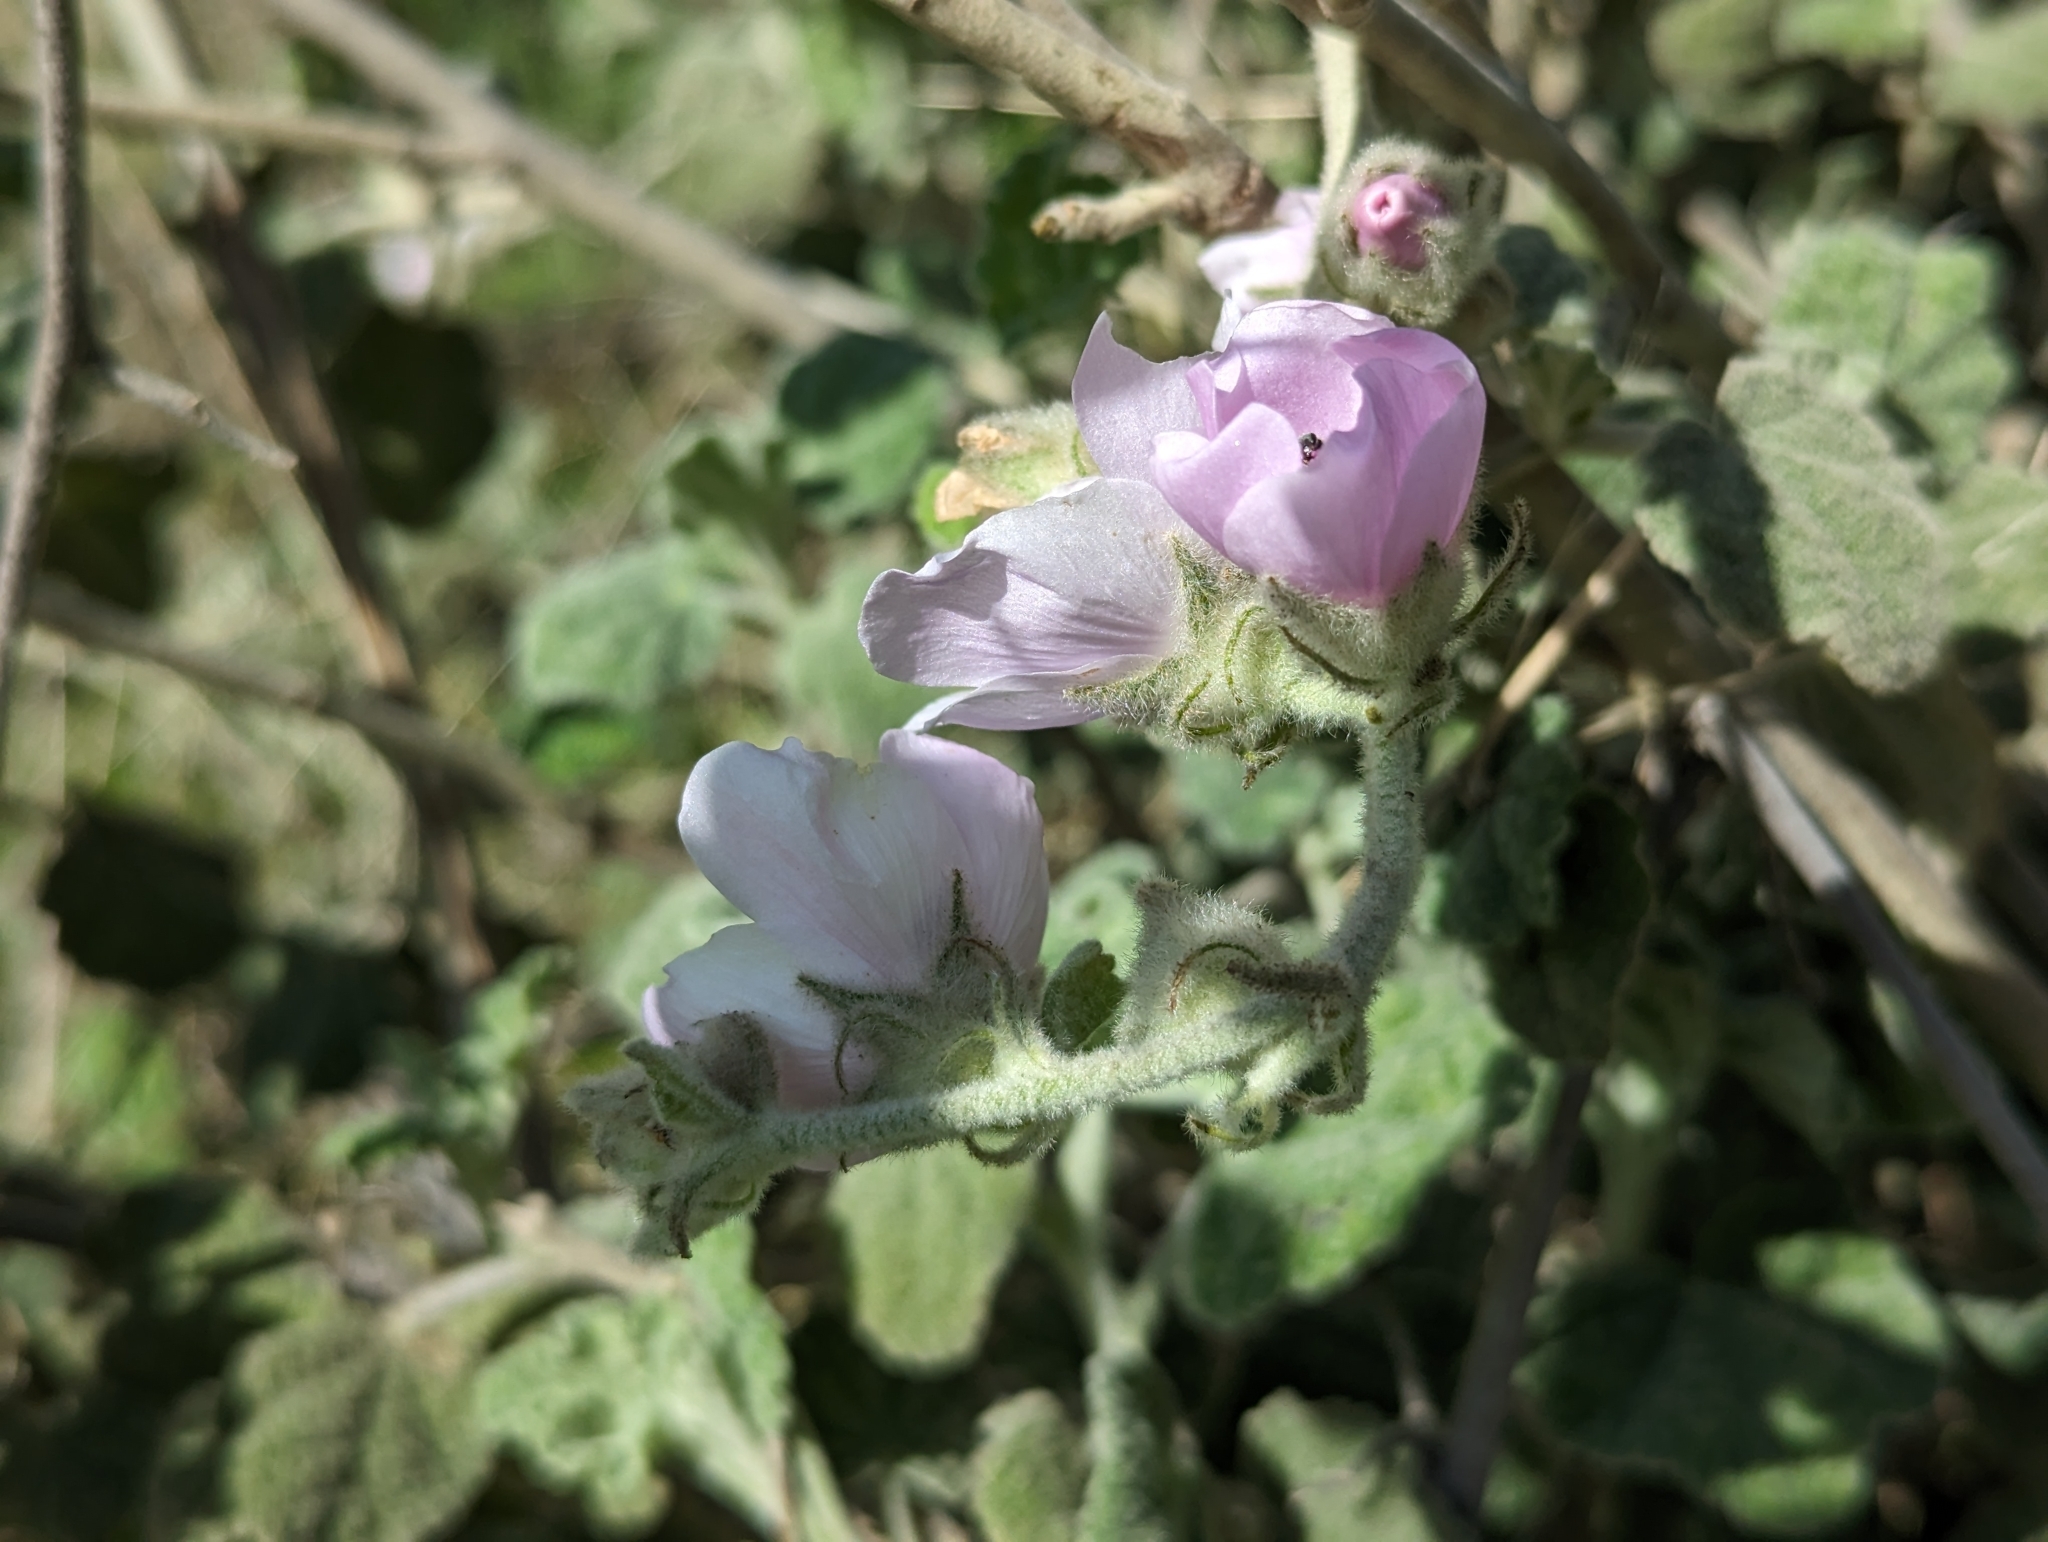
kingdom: Plantae
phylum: Tracheophyta
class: Magnoliopsida
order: Malvales
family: Malvaceae
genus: Malacothamnus
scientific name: Malacothamnus fremontii
